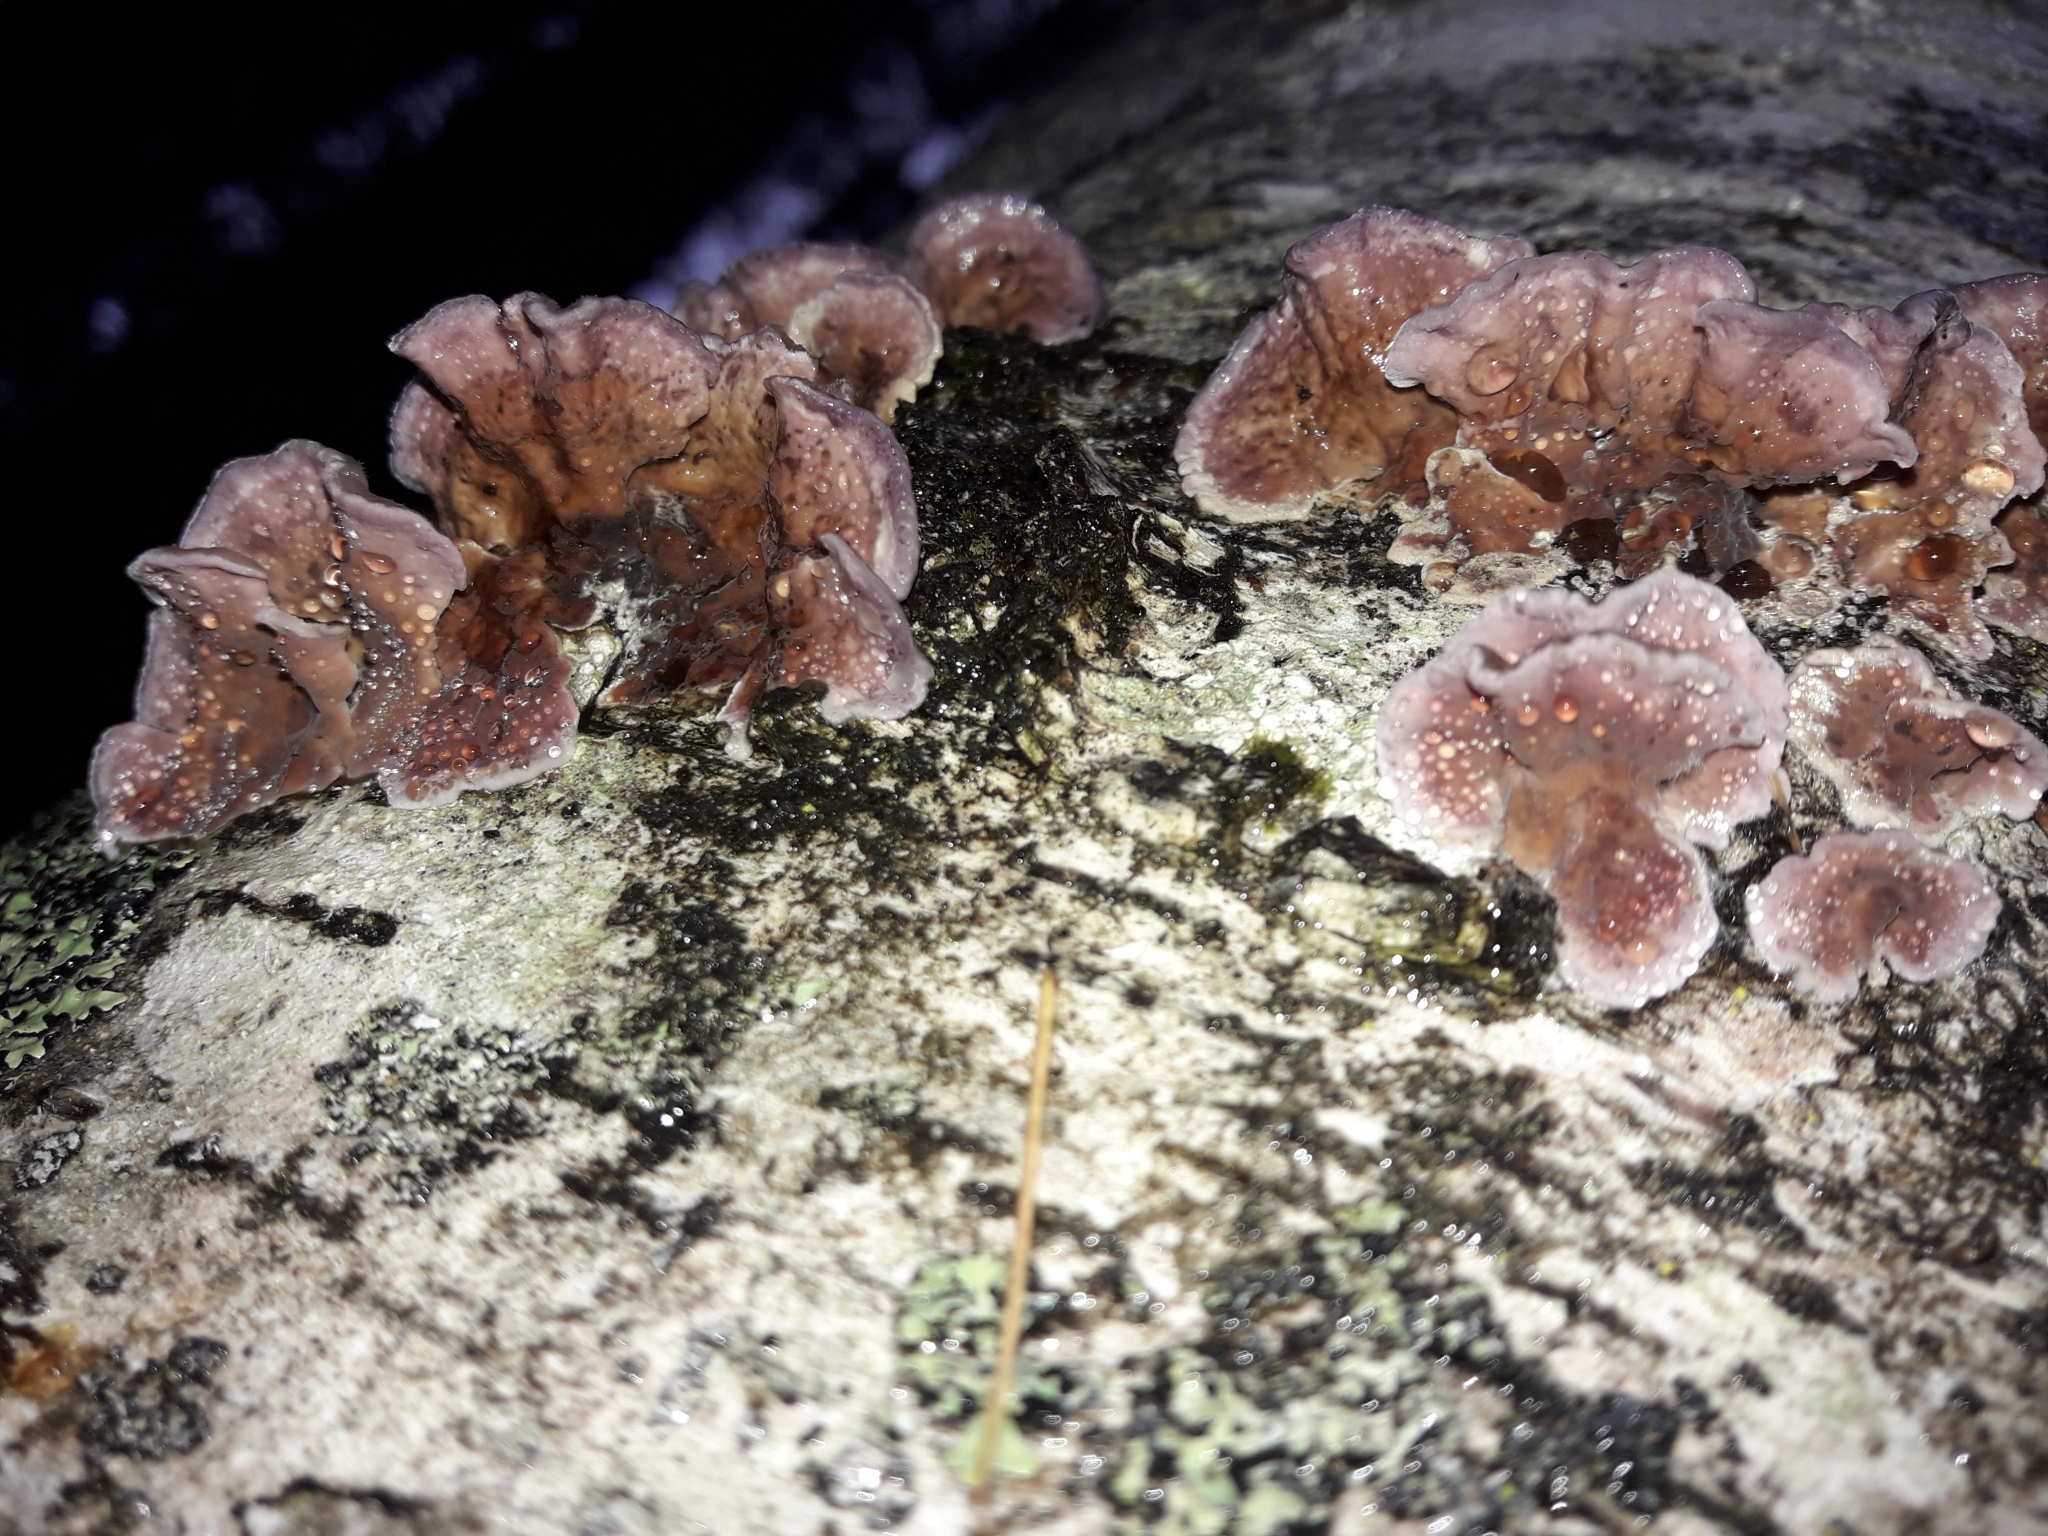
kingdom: Fungi
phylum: Basidiomycota
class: Agaricomycetes
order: Agaricales
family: Cyphellaceae
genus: Chondrostereum
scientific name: Chondrostereum purpureum
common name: Silver leaf disease
